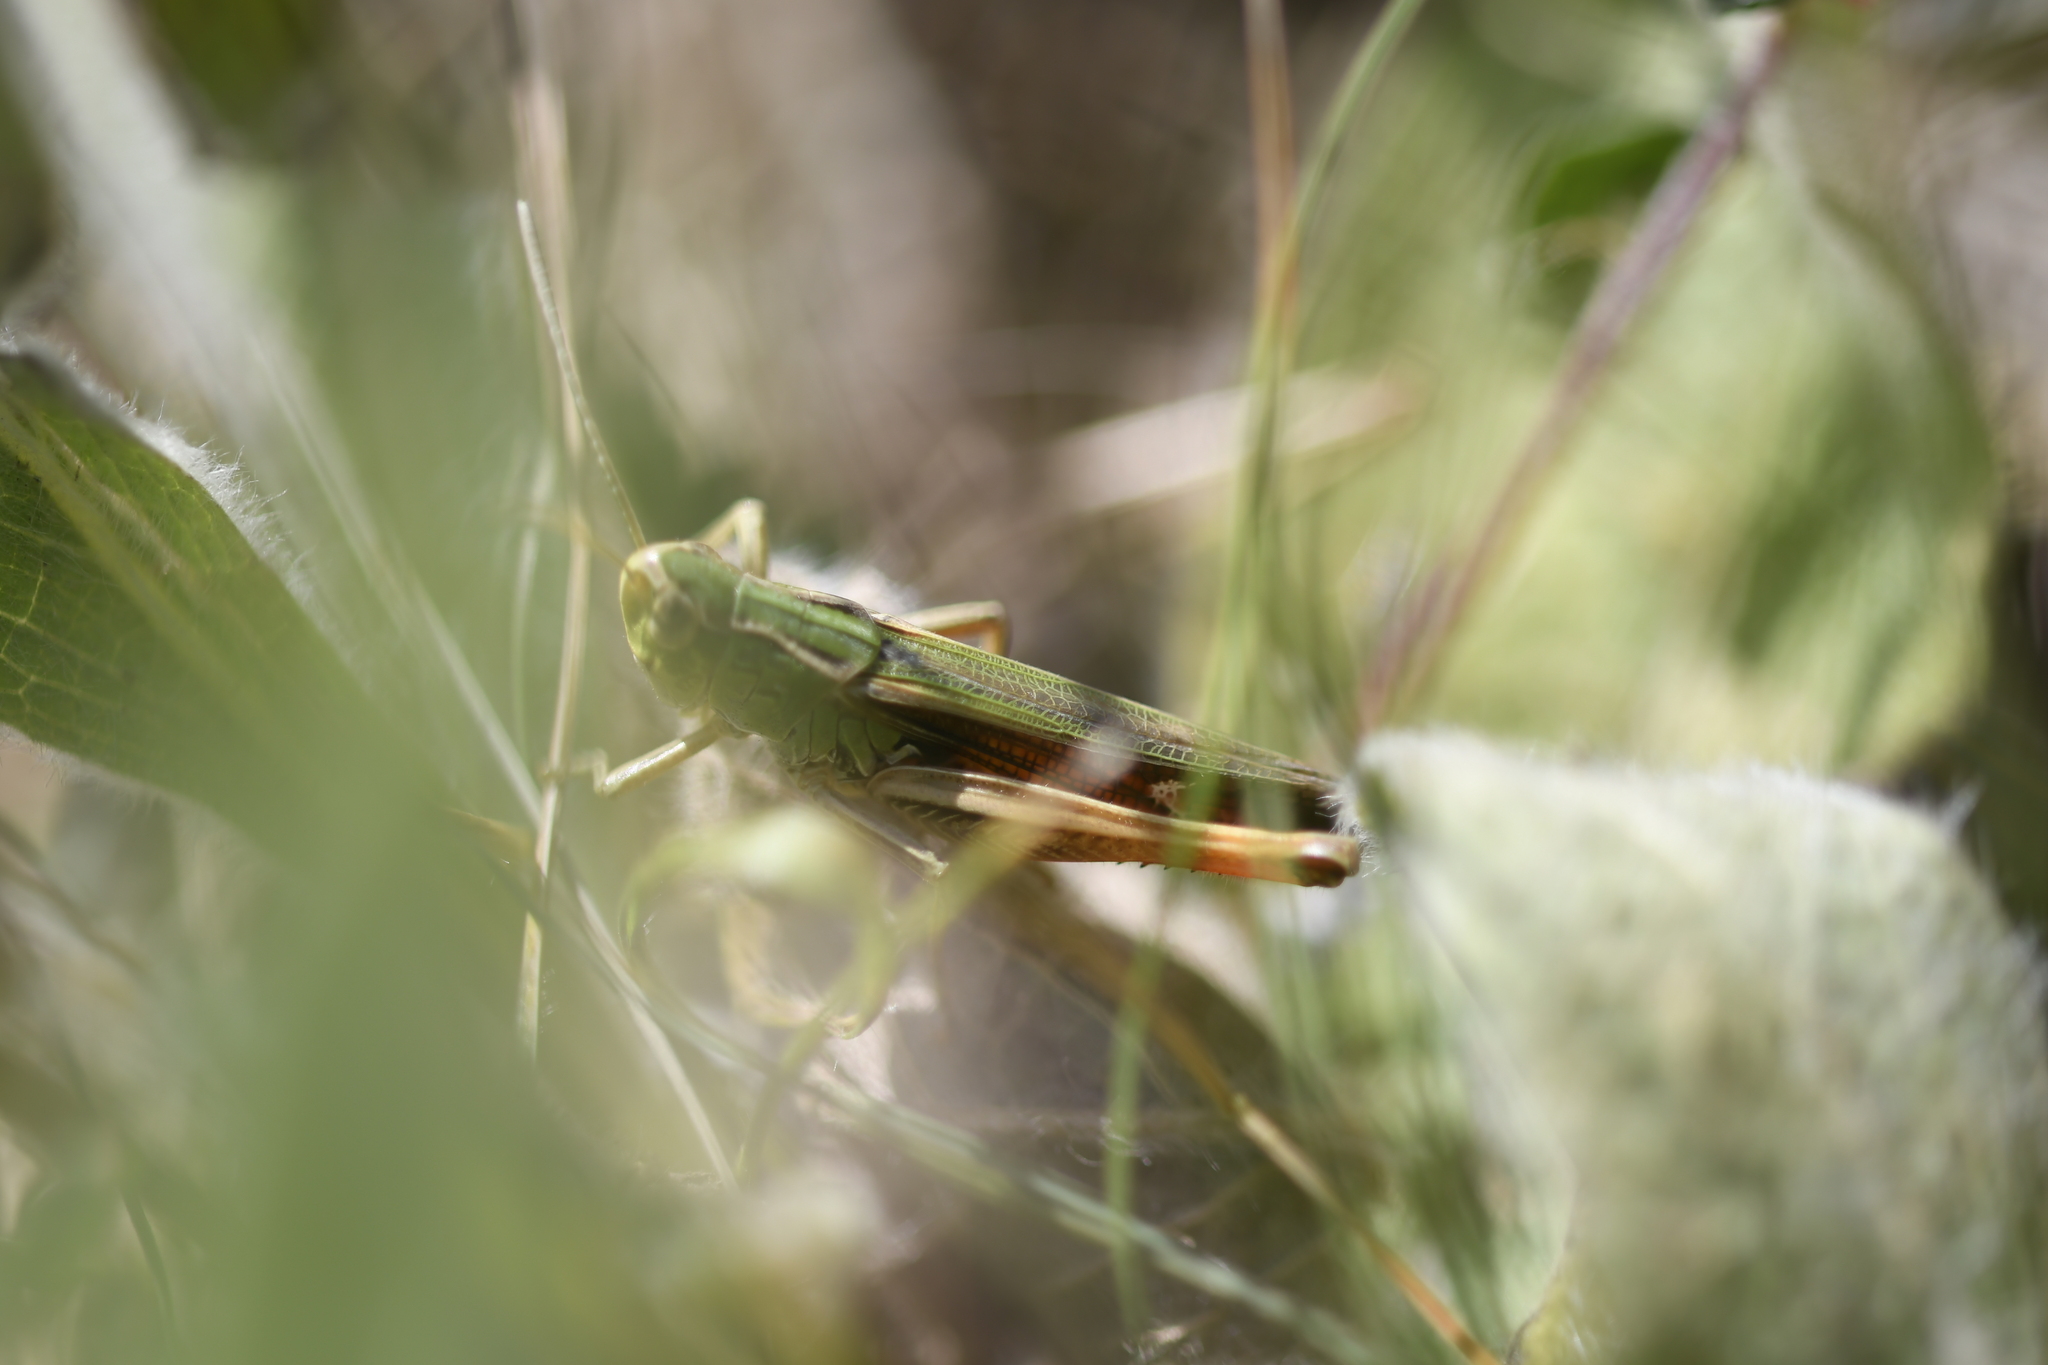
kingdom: Animalia
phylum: Arthropoda
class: Insecta
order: Orthoptera
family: Acrididae
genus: Stenobothrus
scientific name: Stenobothrus lineatus
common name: Stripe-winged grasshopper
